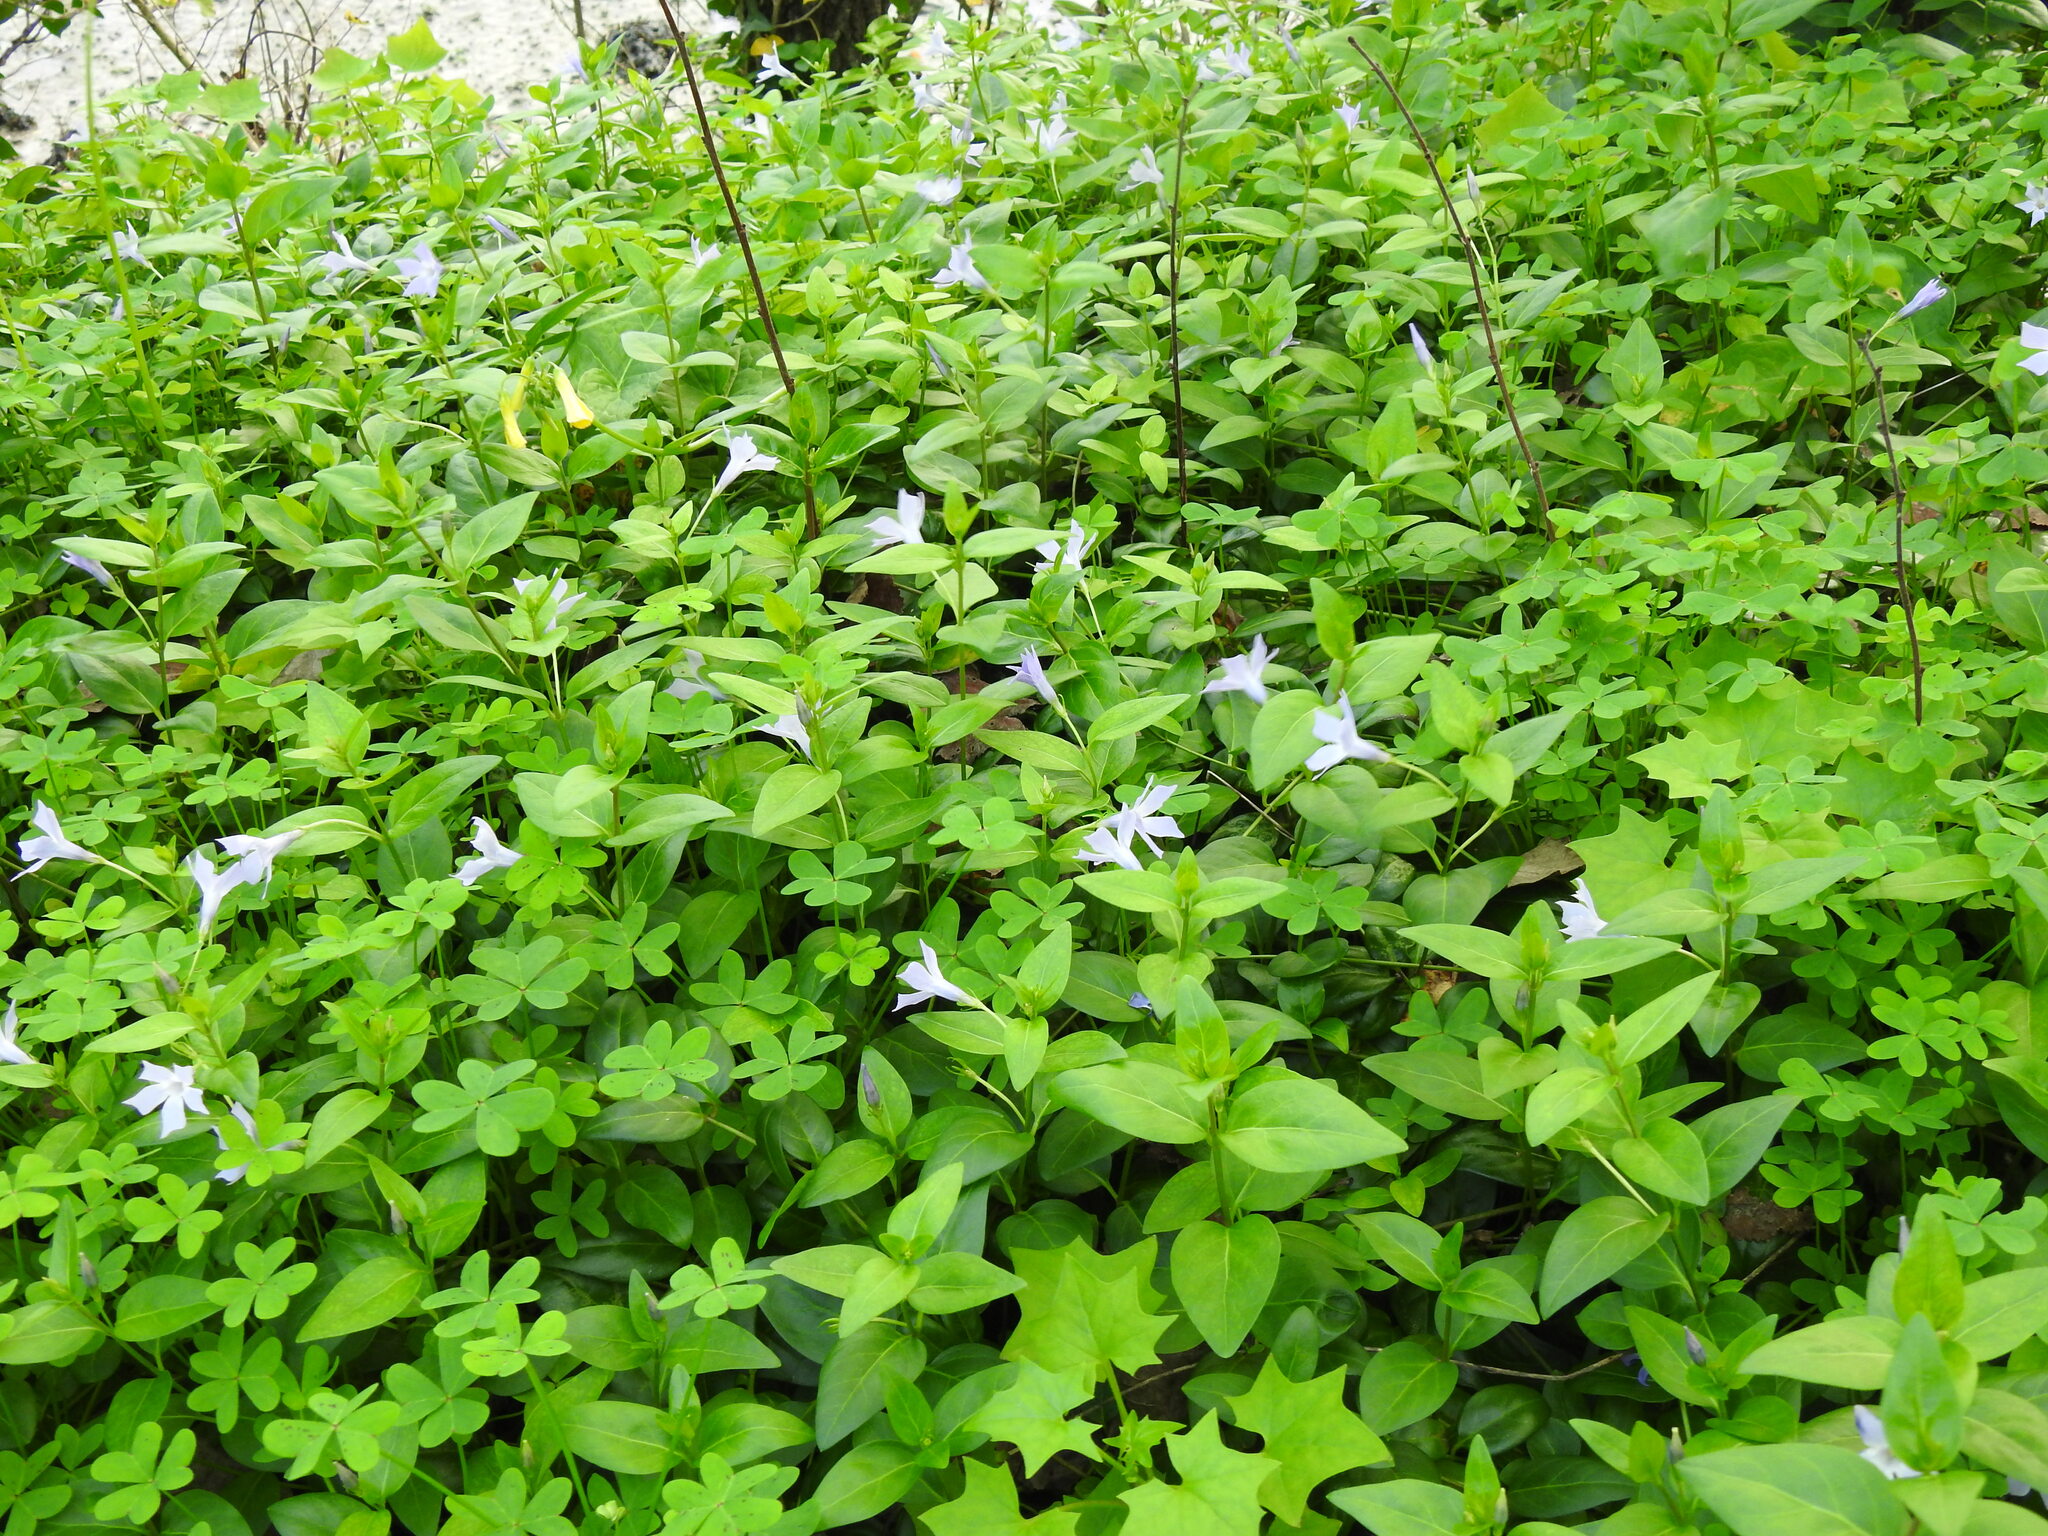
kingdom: Plantae
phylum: Tracheophyta
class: Magnoliopsida
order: Gentianales
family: Apocynaceae
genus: Vinca
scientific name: Vinca difformis
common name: Intermediate periwinkle
